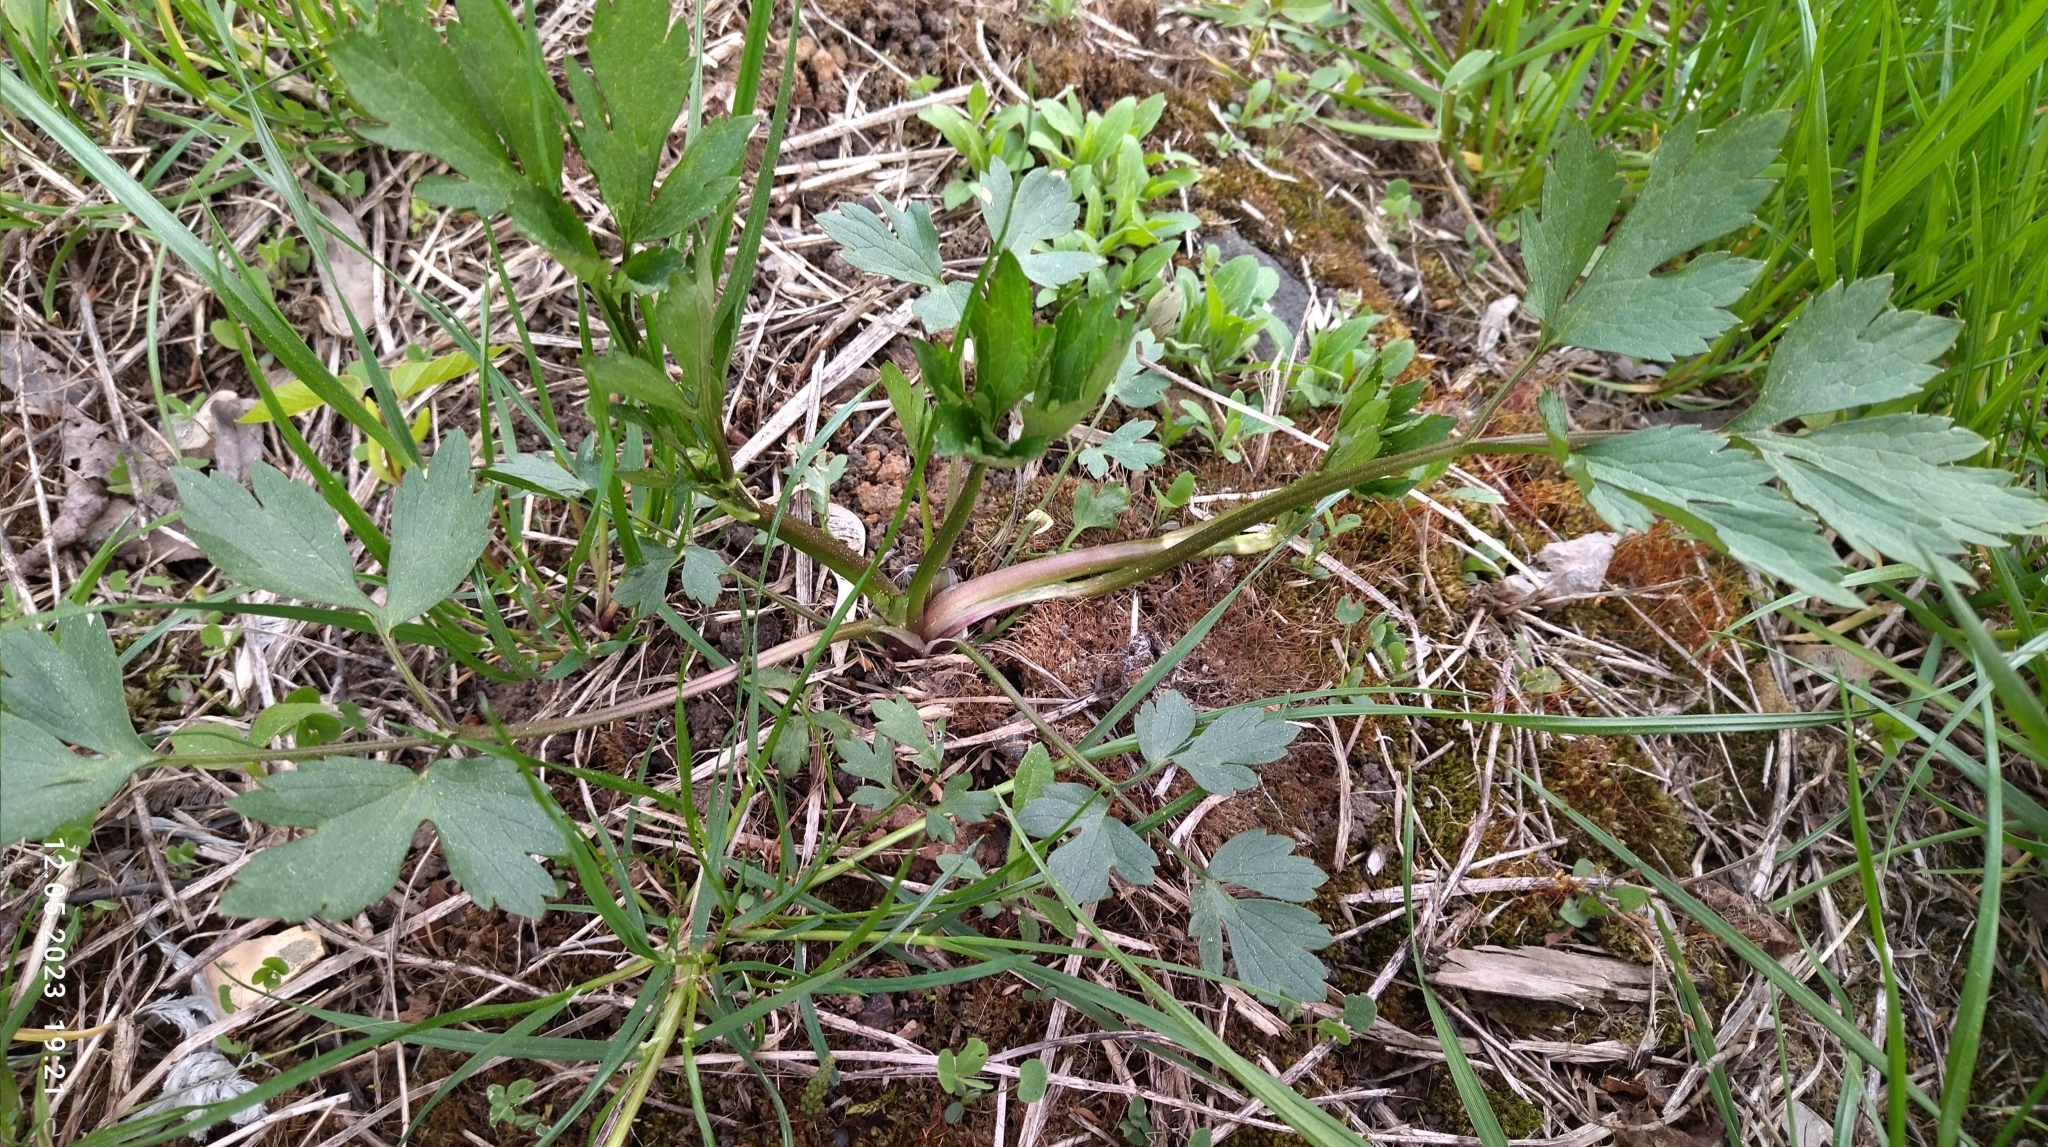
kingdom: Plantae
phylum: Tracheophyta
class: Magnoliopsida
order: Ranunculales
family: Ranunculaceae
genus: Ranunculus
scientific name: Ranunculus repens
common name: Creeping buttercup
